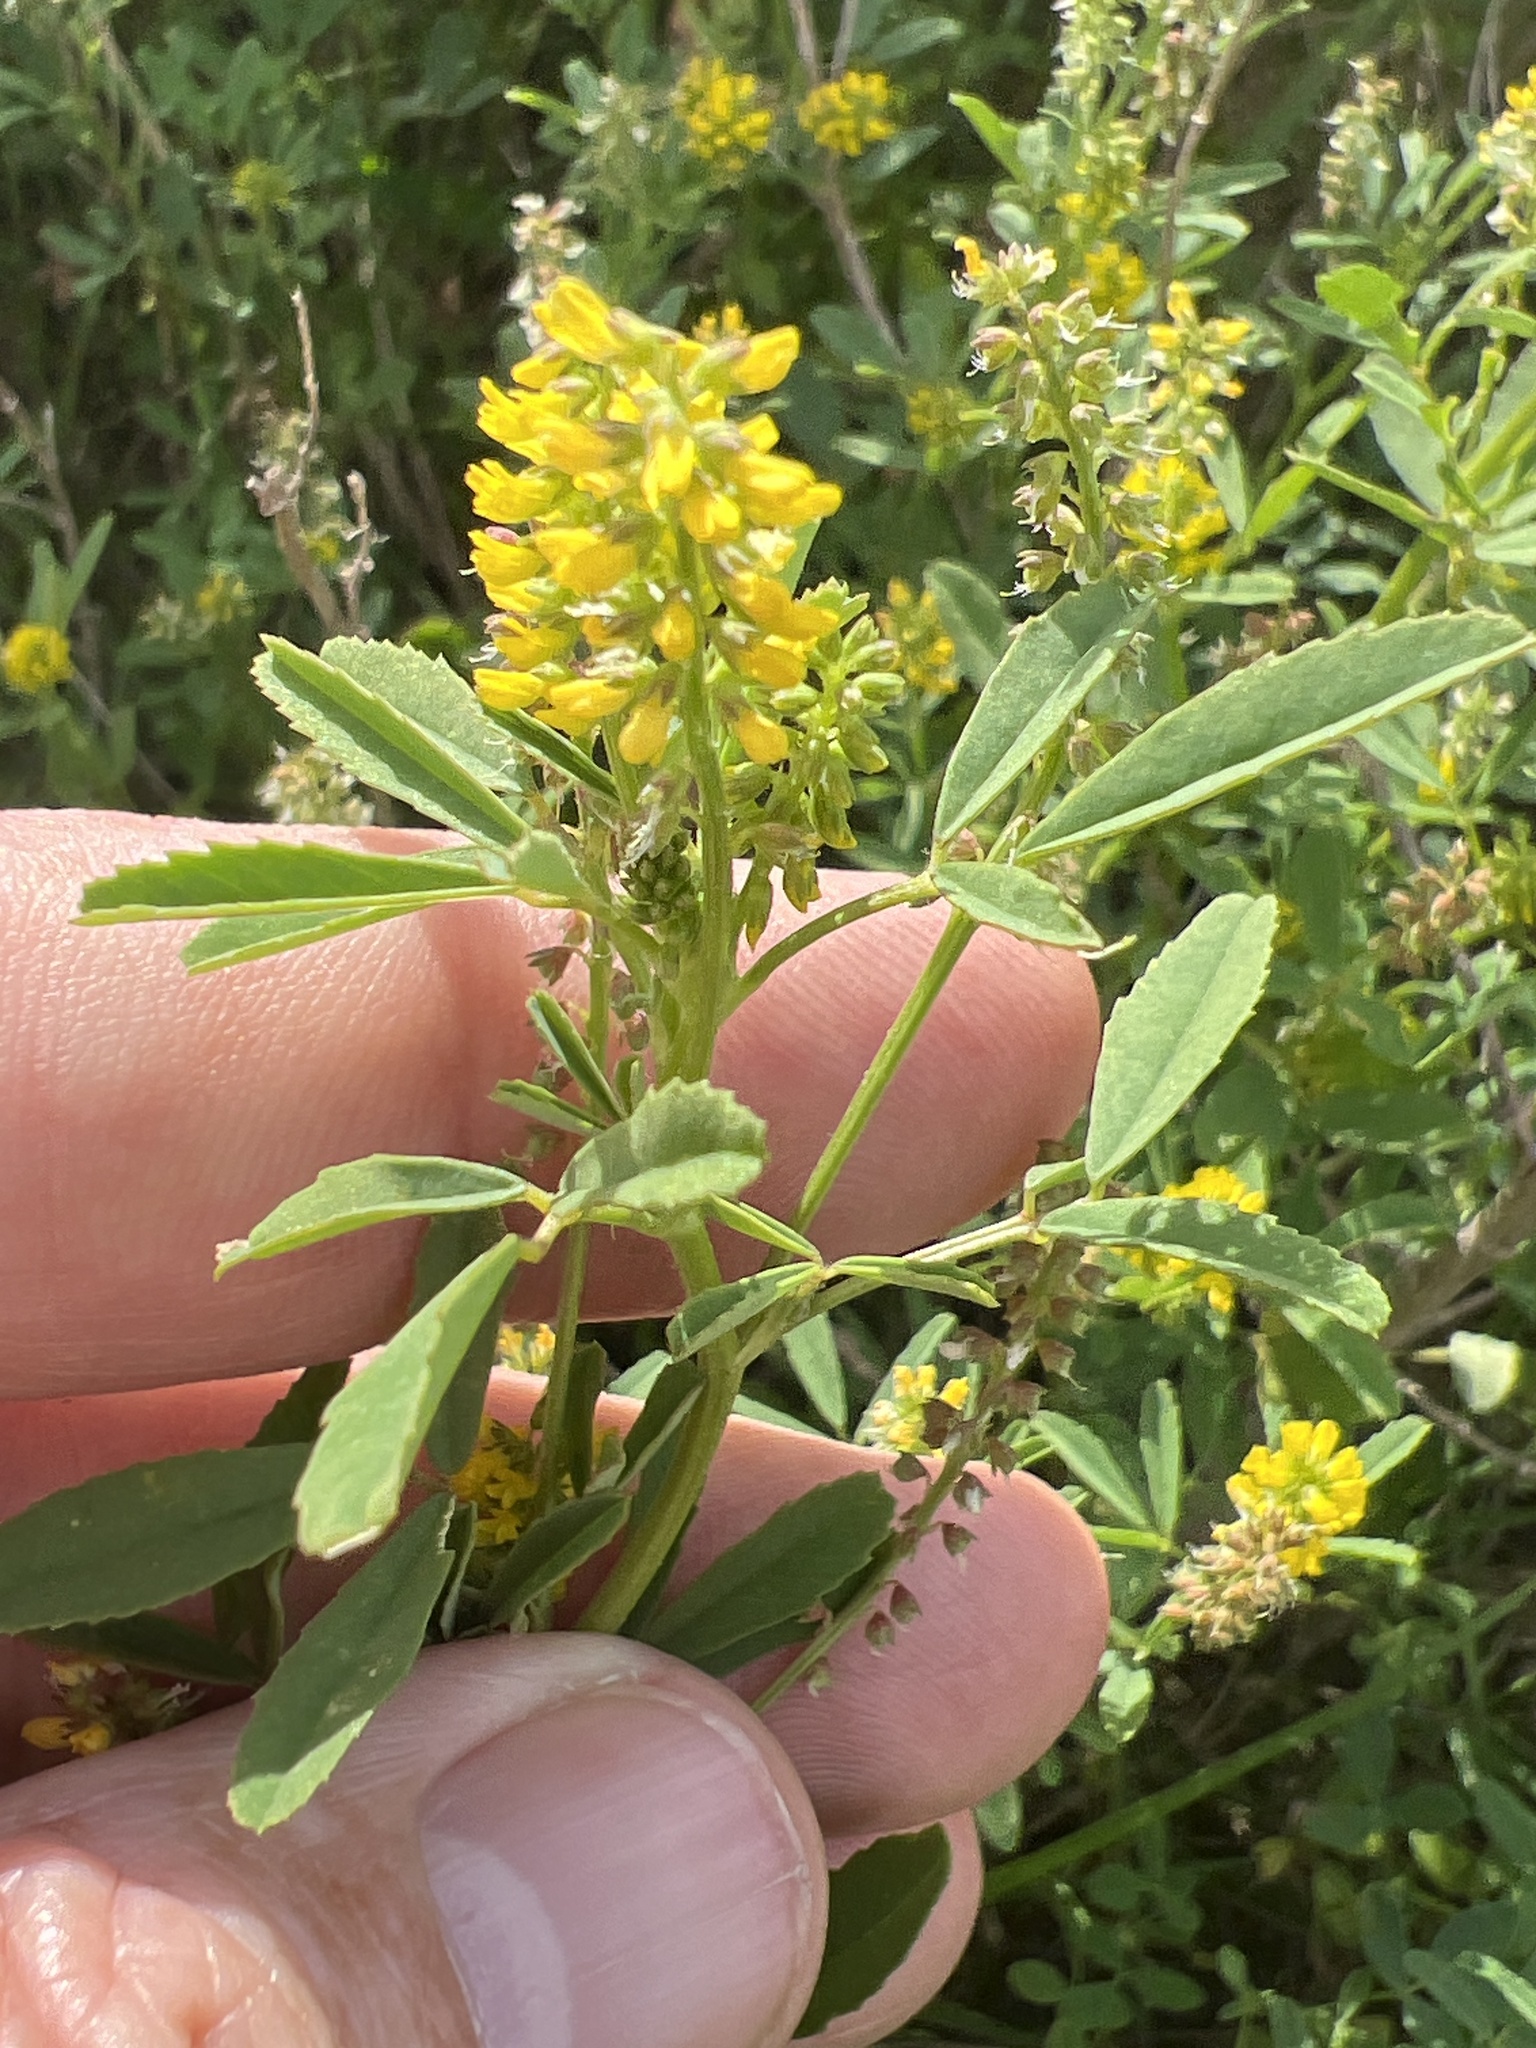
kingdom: Plantae
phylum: Tracheophyta
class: Magnoliopsida
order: Fabales
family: Fabaceae
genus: Melilotus
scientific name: Melilotus indicus
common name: Small melilot
